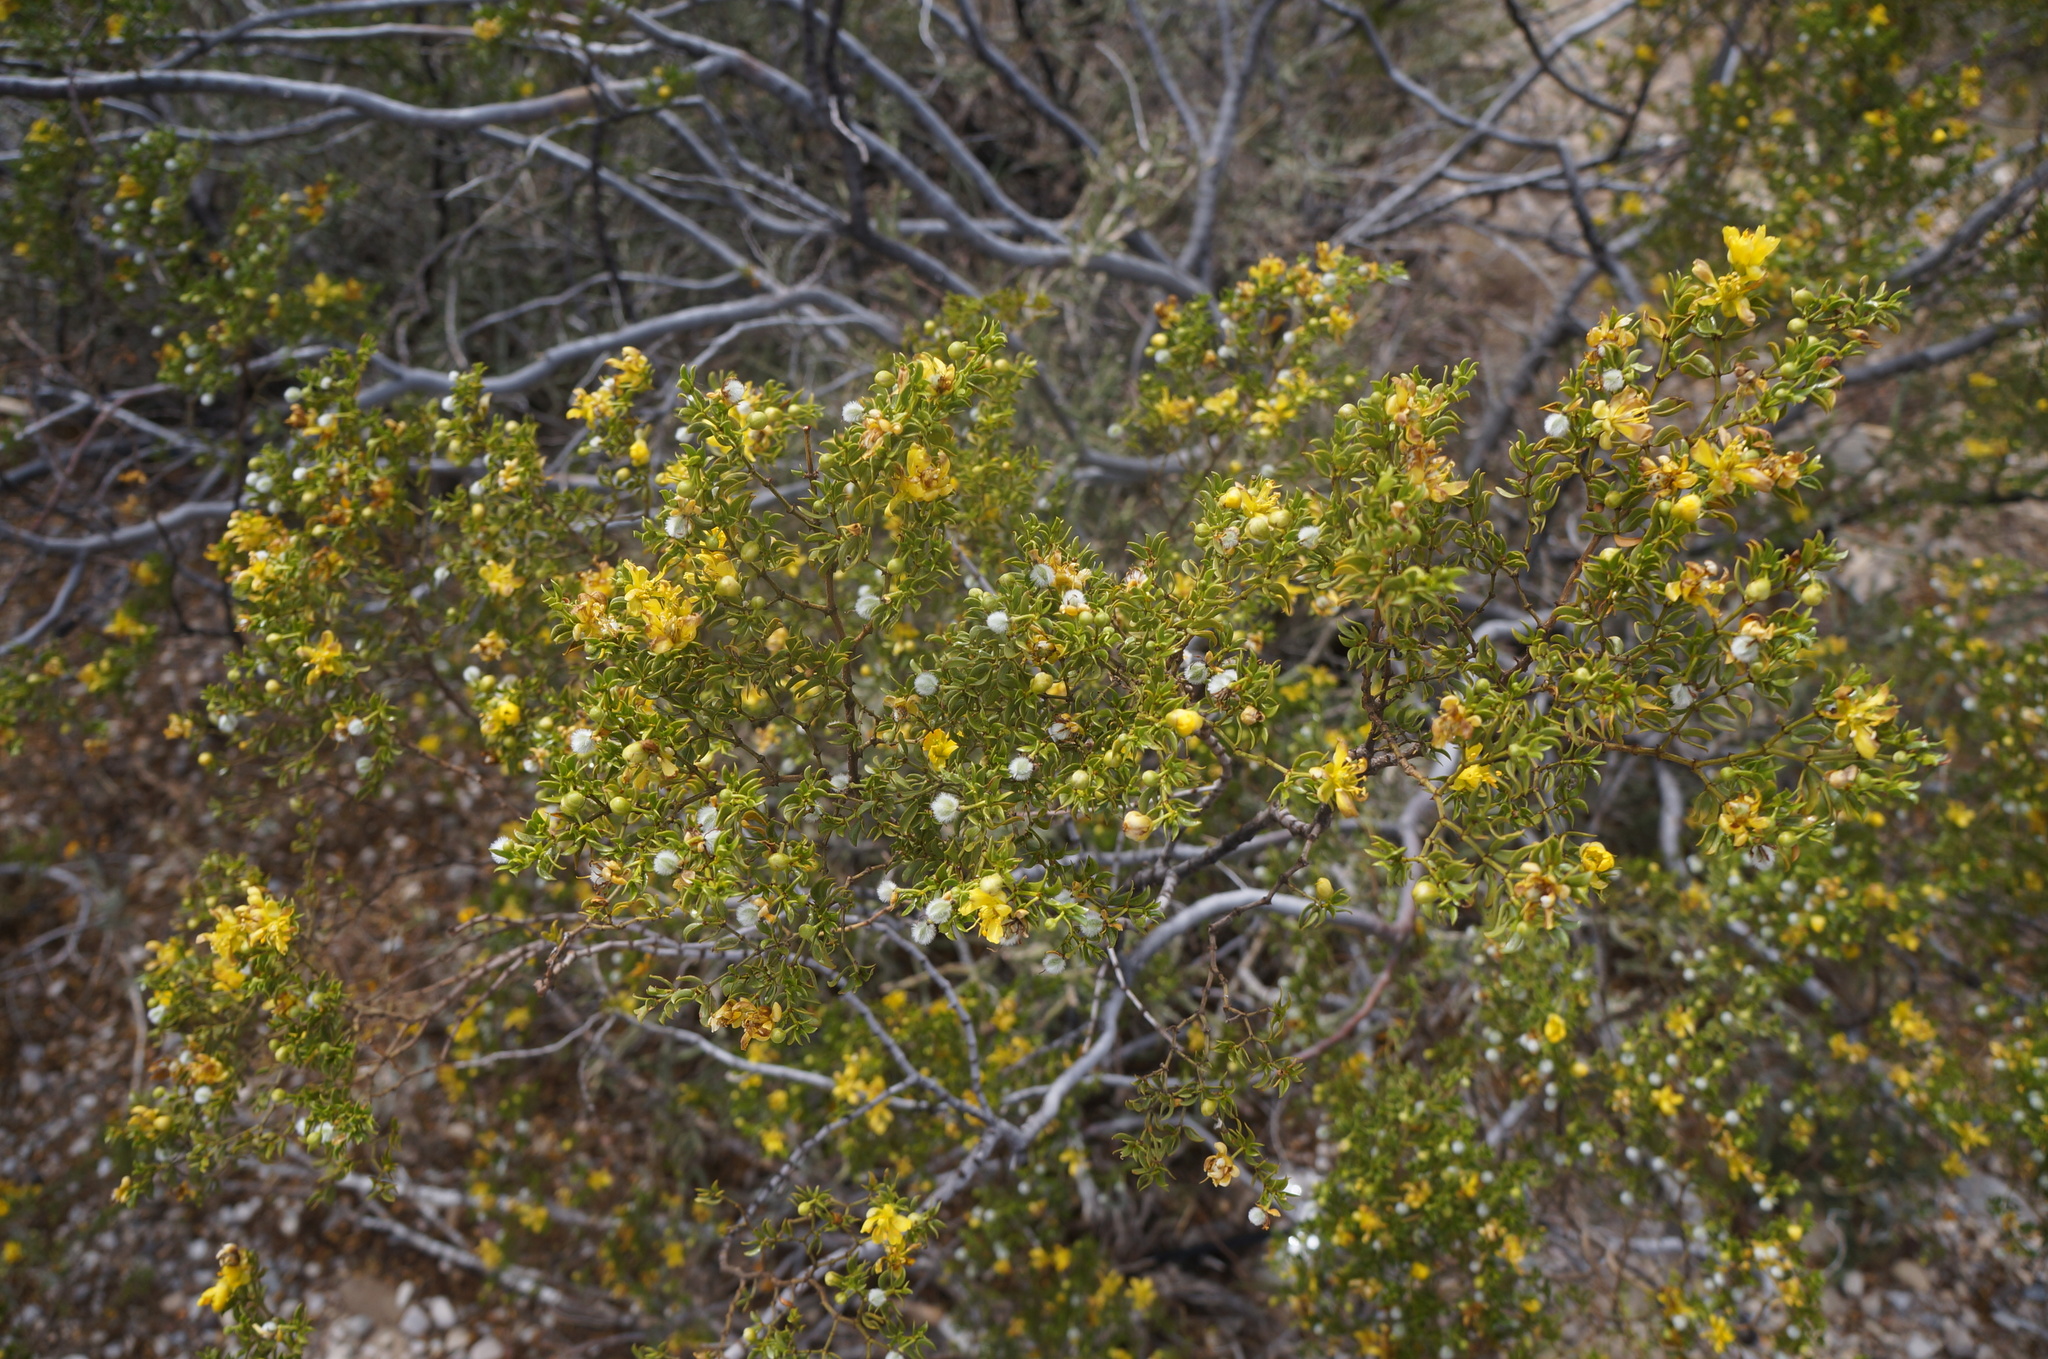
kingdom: Plantae
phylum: Tracheophyta
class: Magnoliopsida
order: Zygophyllales
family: Zygophyllaceae
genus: Larrea
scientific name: Larrea tridentata
